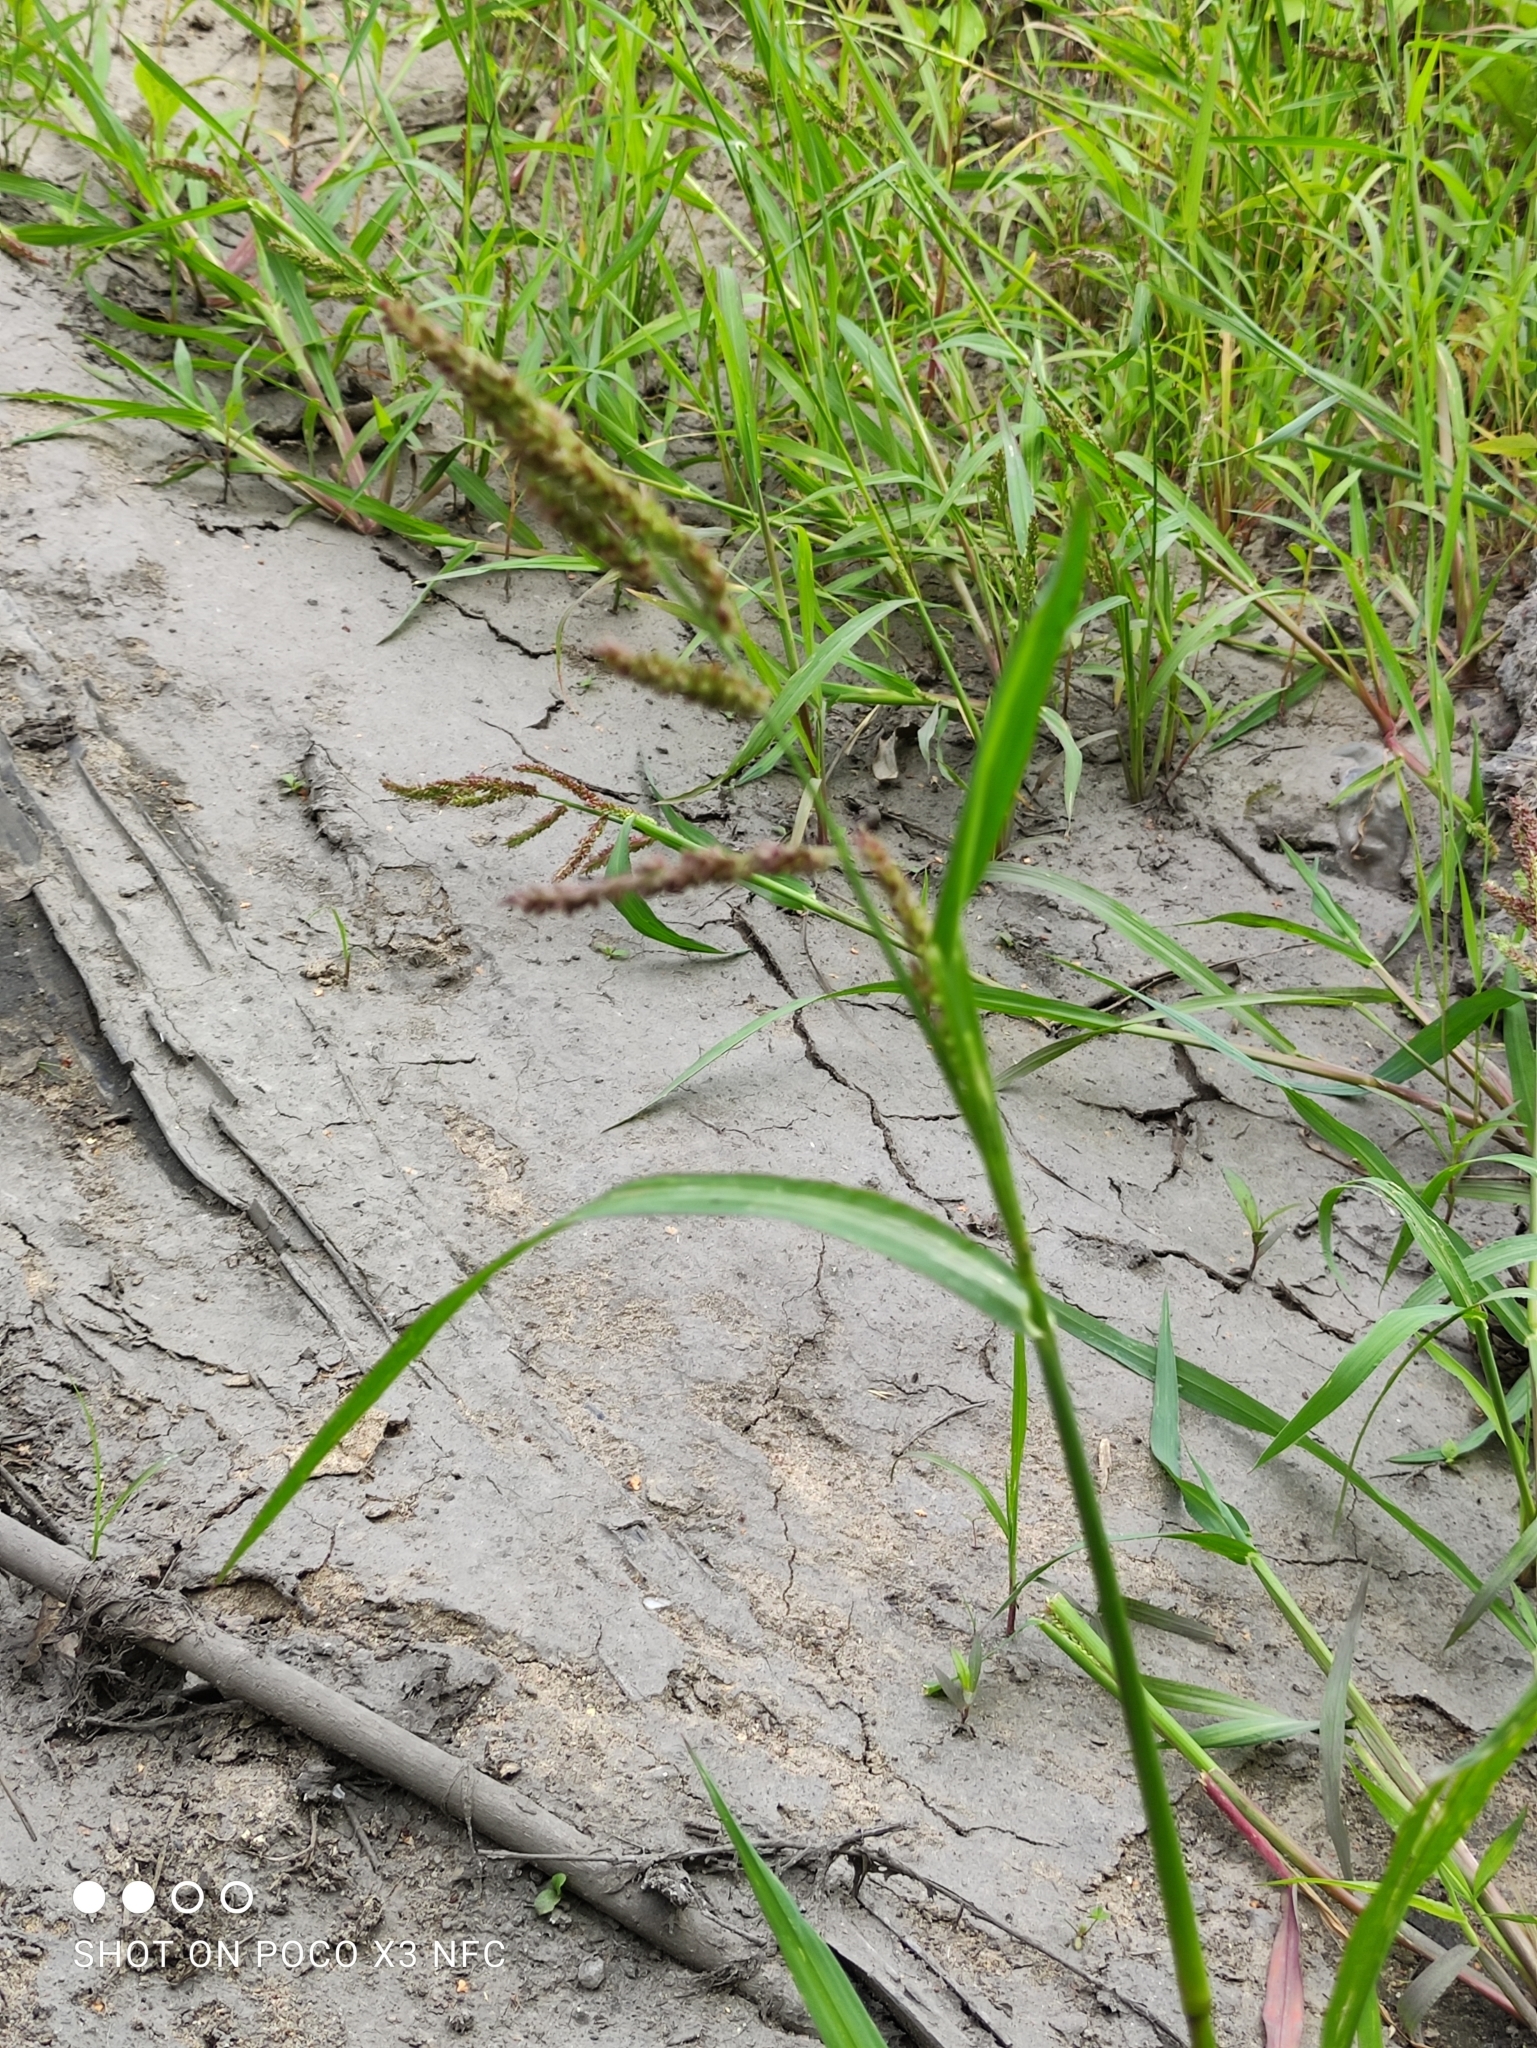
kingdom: Plantae
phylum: Tracheophyta
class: Liliopsida
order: Poales
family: Poaceae
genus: Echinochloa
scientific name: Echinochloa crus-galli
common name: Cockspur
